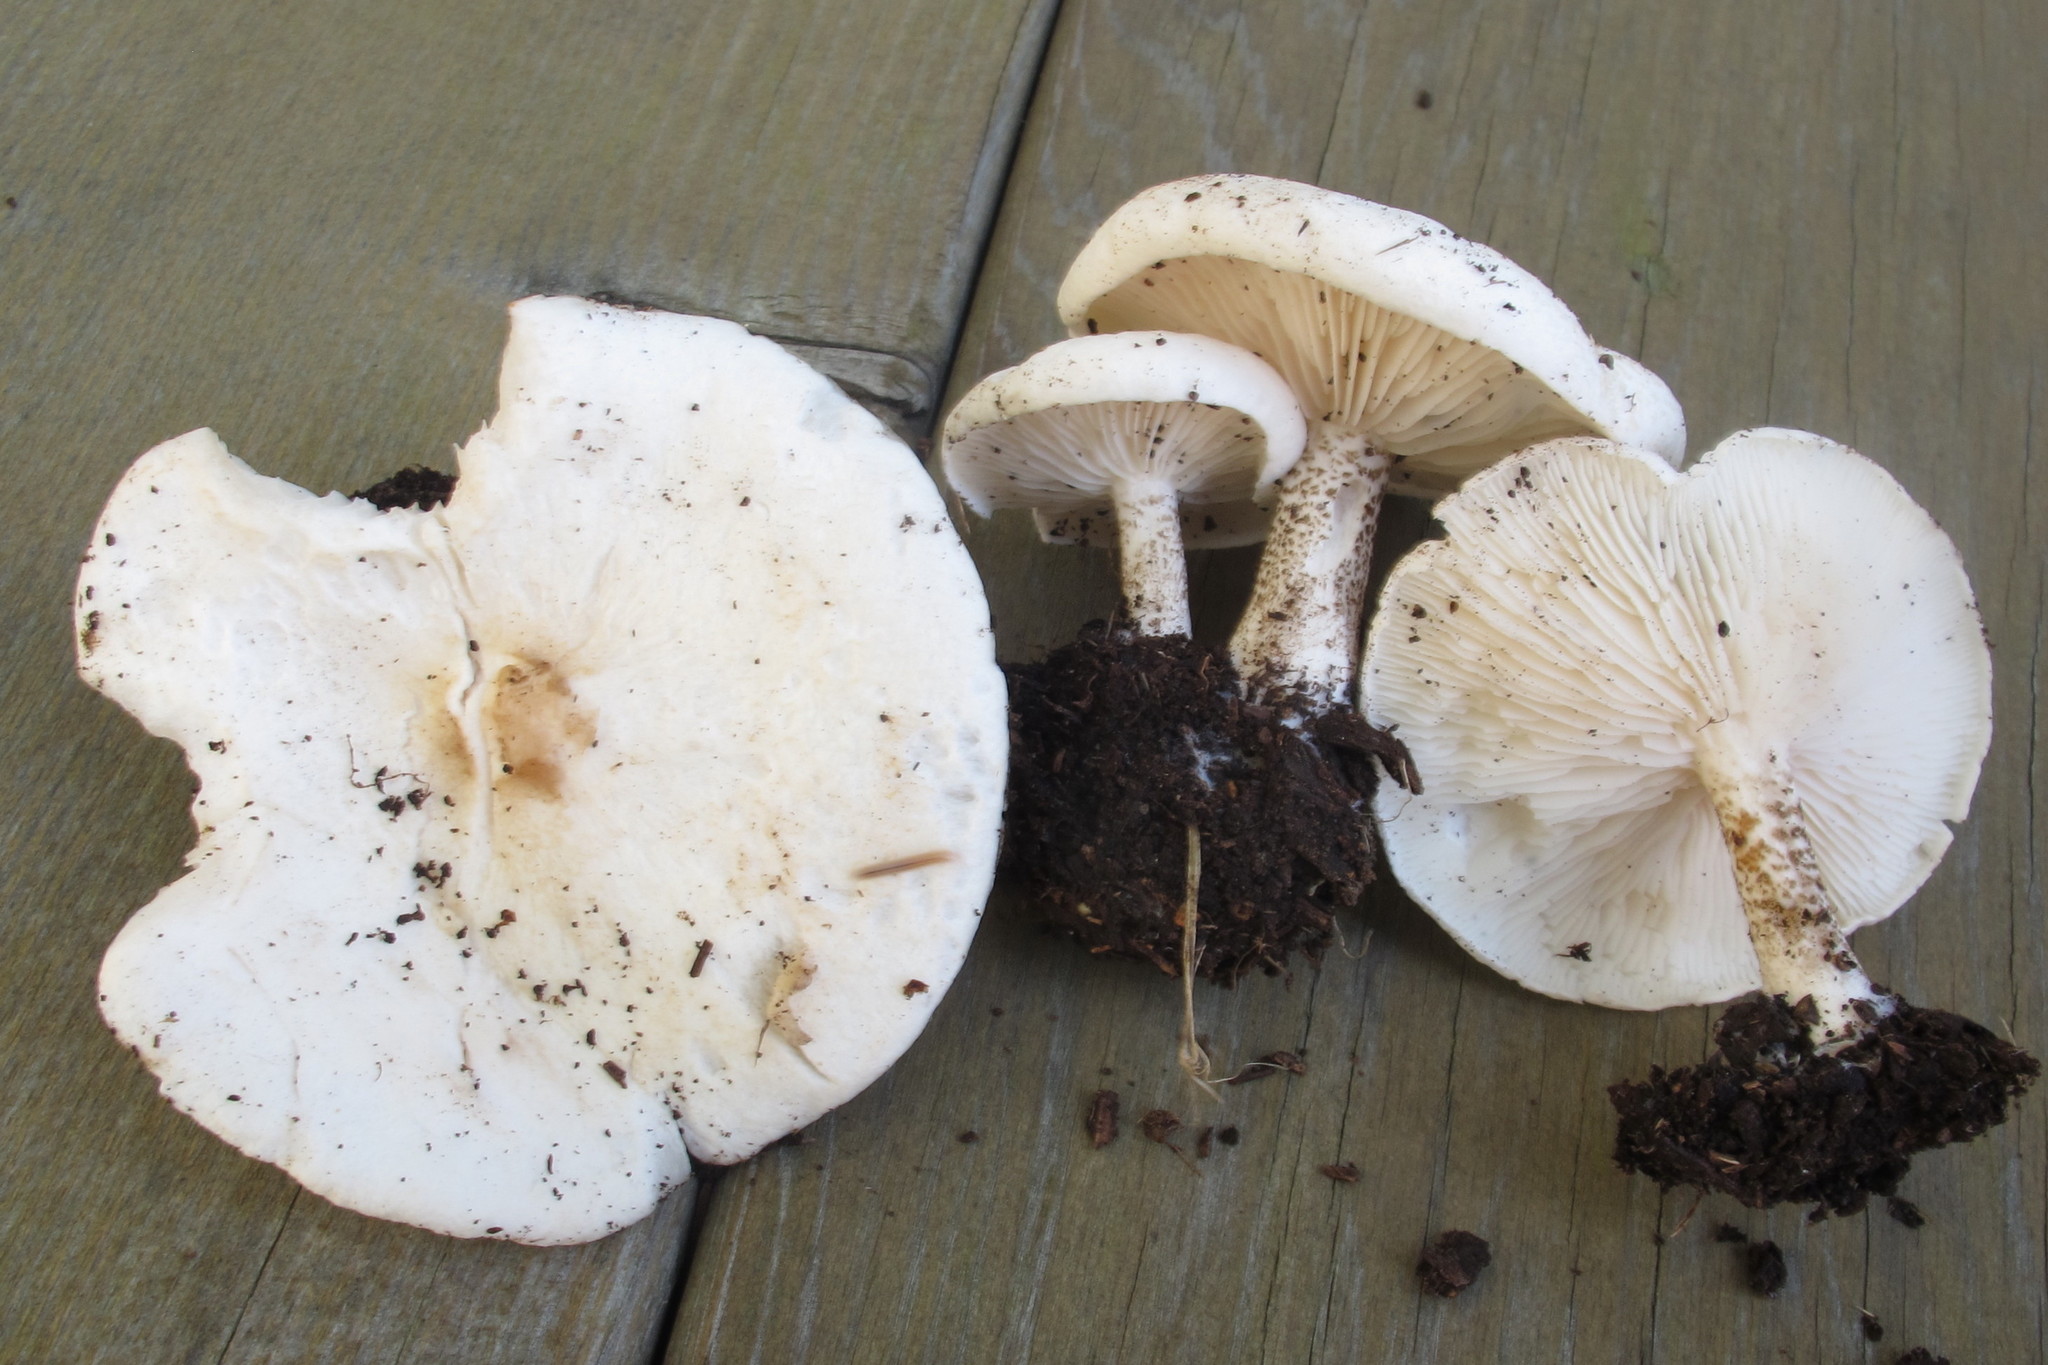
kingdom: Fungi
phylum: Basidiomycota
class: Agaricomycetes
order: Agaricales
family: Tricholomataceae
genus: Melanoleuca
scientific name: Melanoleuca verrucipes
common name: Warty cavalier
